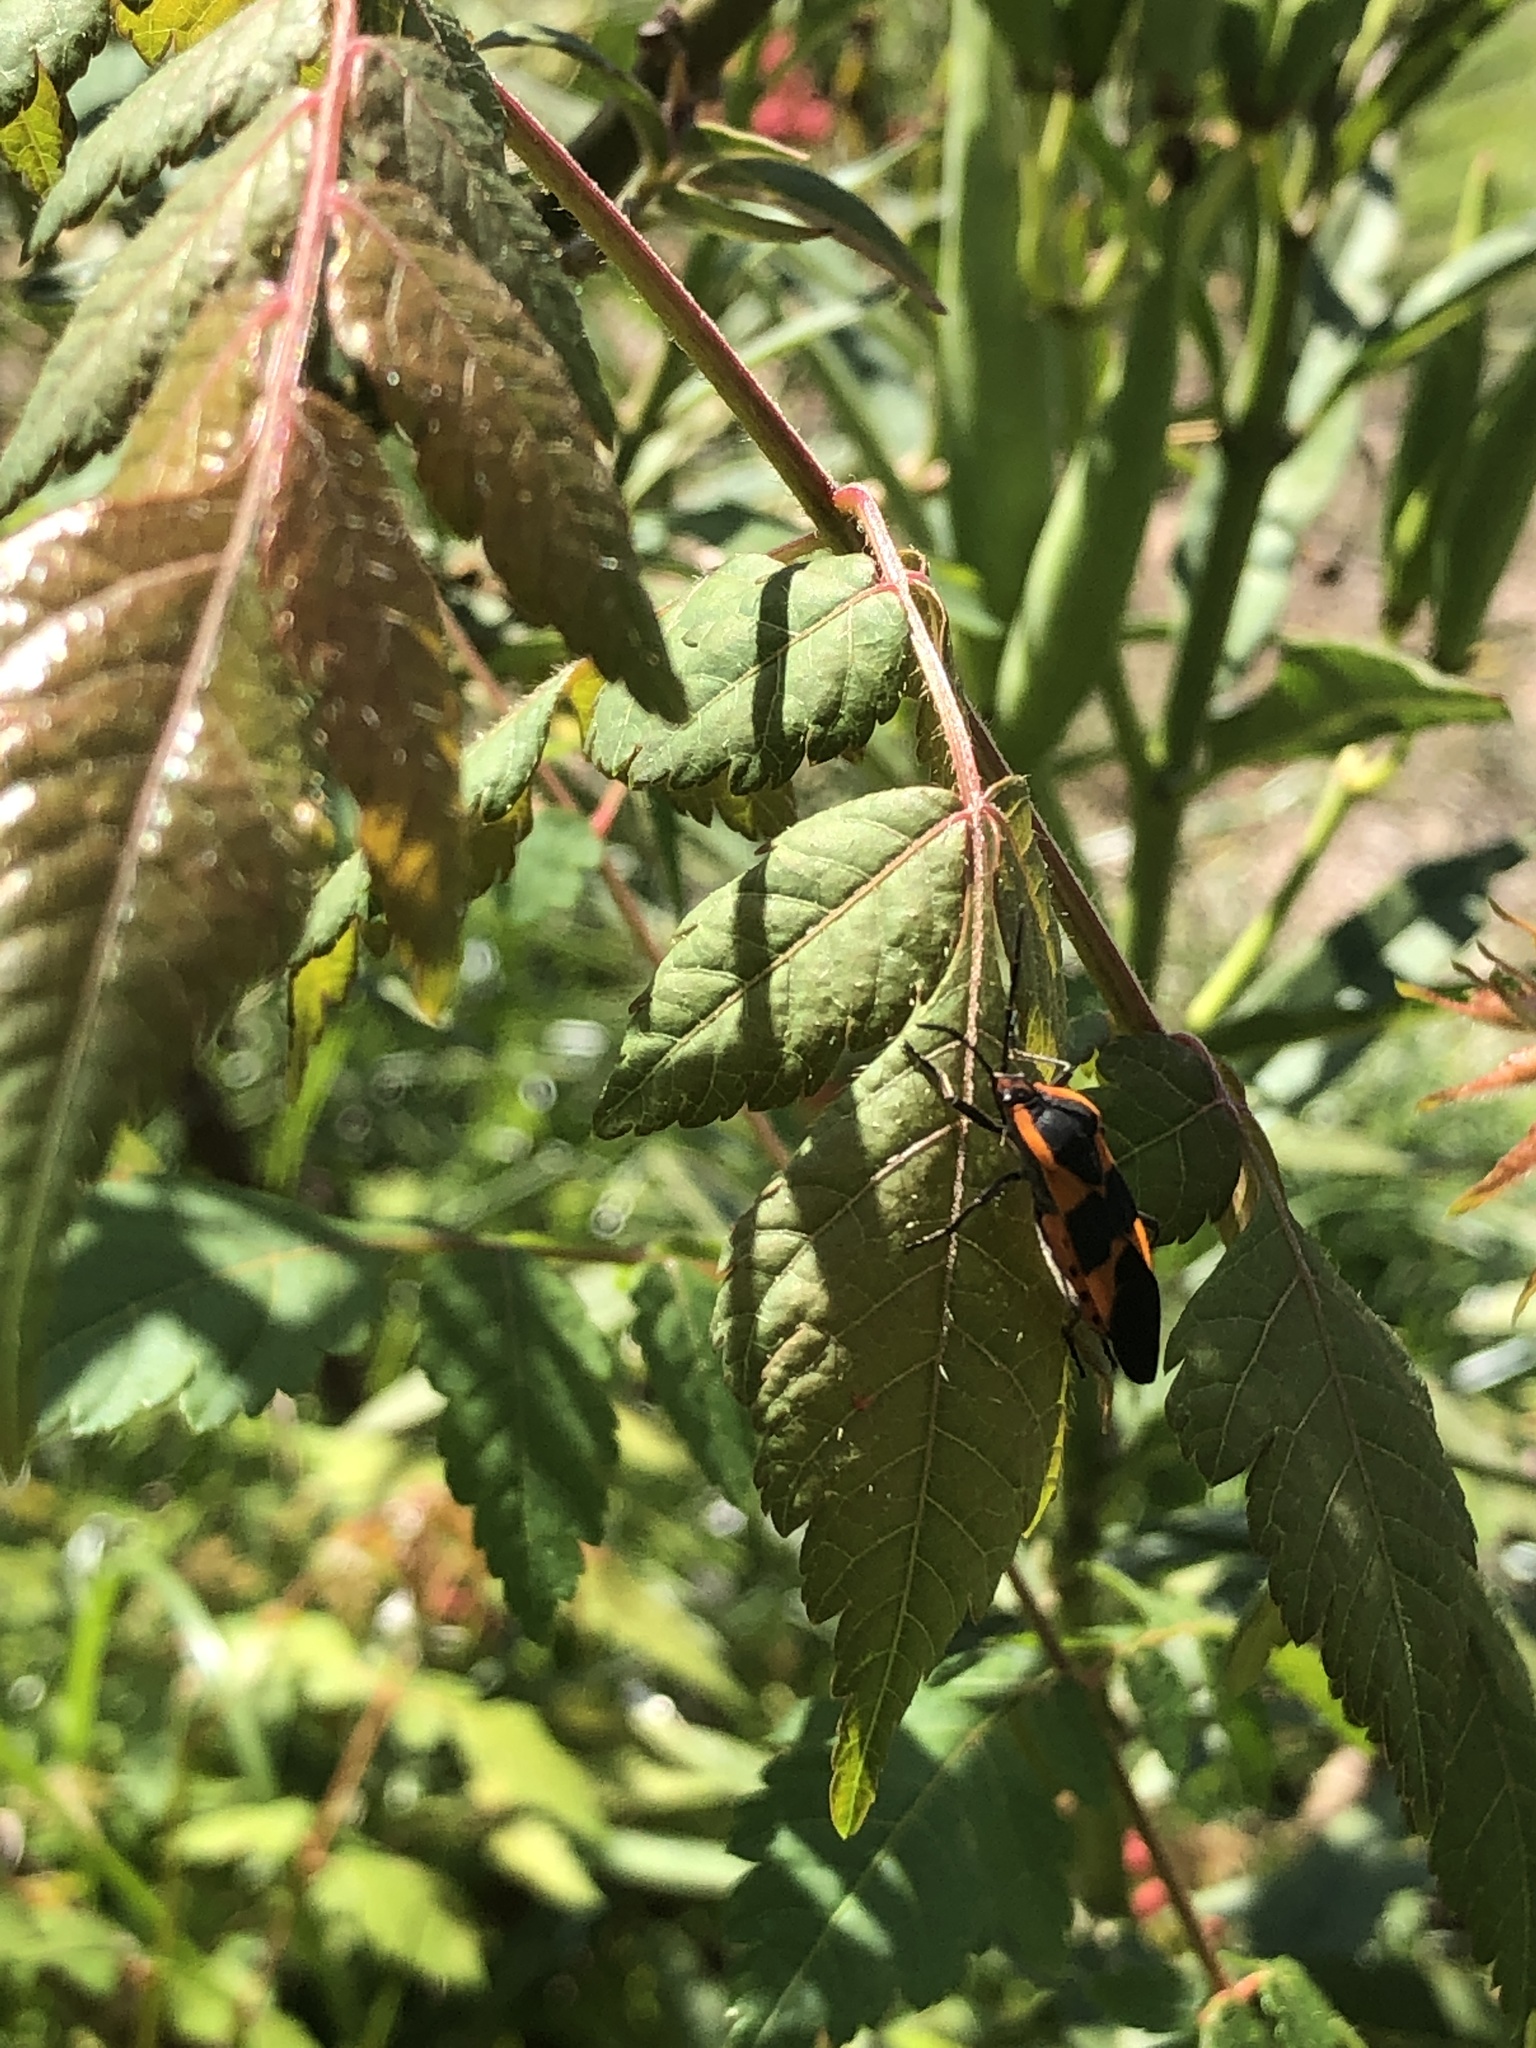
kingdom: Animalia
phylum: Arthropoda
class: Insecta
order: Hemiptera
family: Lygaeidae
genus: Oncopeltus
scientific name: Oncopeltus fasciatus
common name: Large milkweed bug
